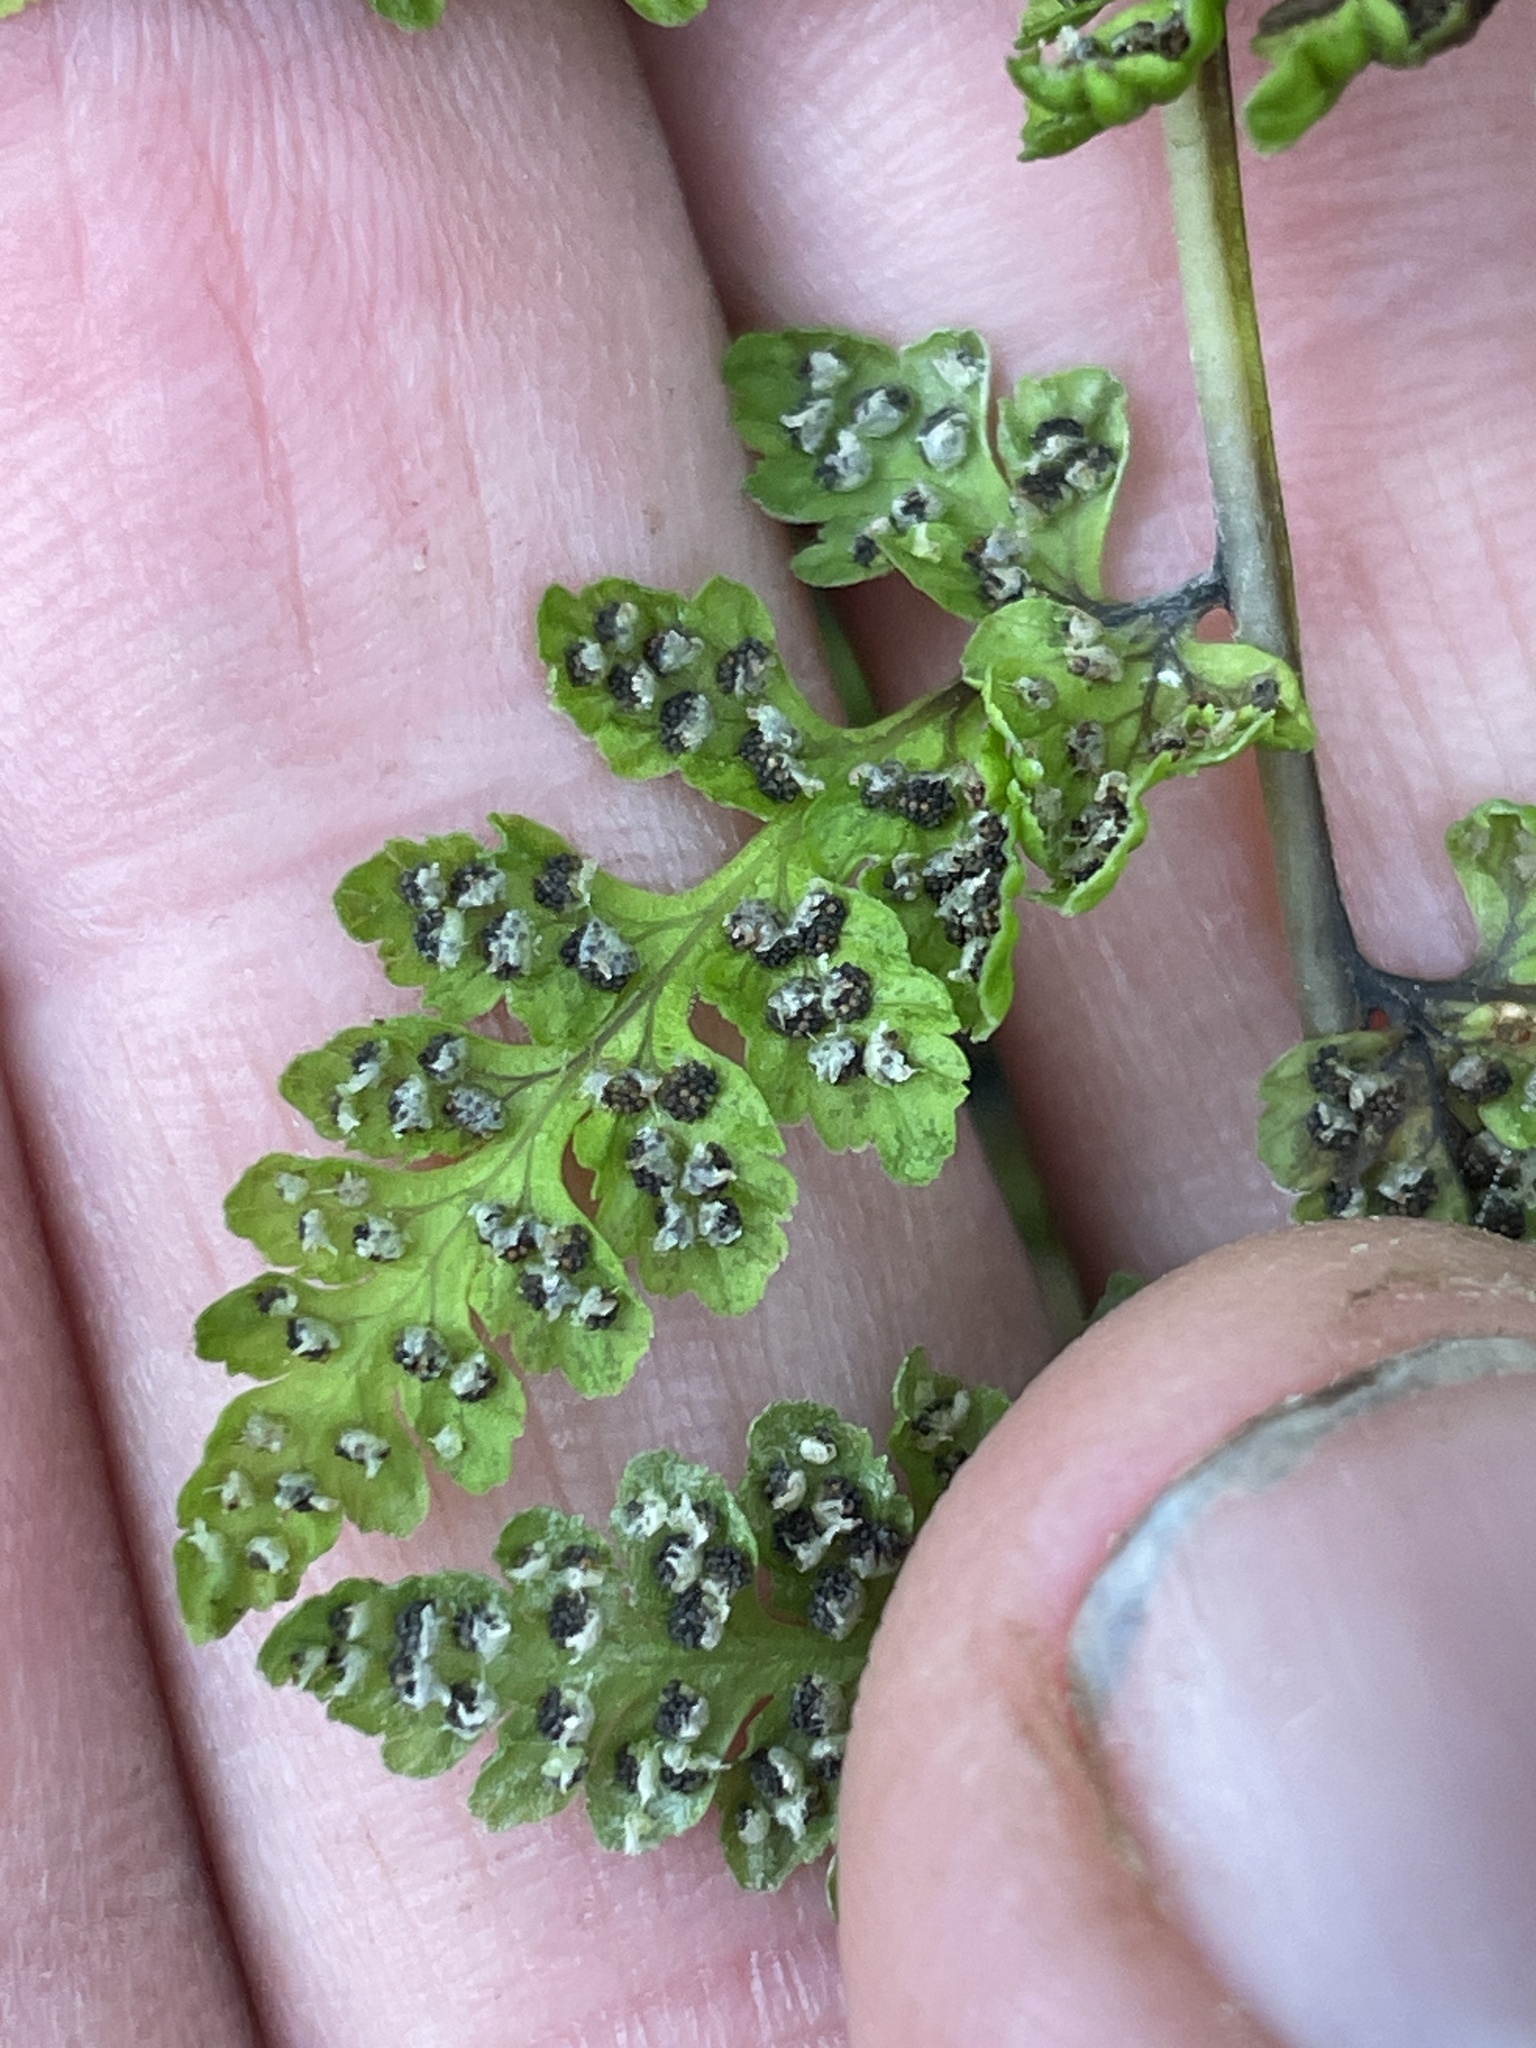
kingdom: Plantae
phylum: Tracheophyta
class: Polypodiopsida
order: Polypodiales
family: Cystopteridaceae
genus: Cystopteris
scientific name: Cystopteris fragilis
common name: Brittle bladder fern
